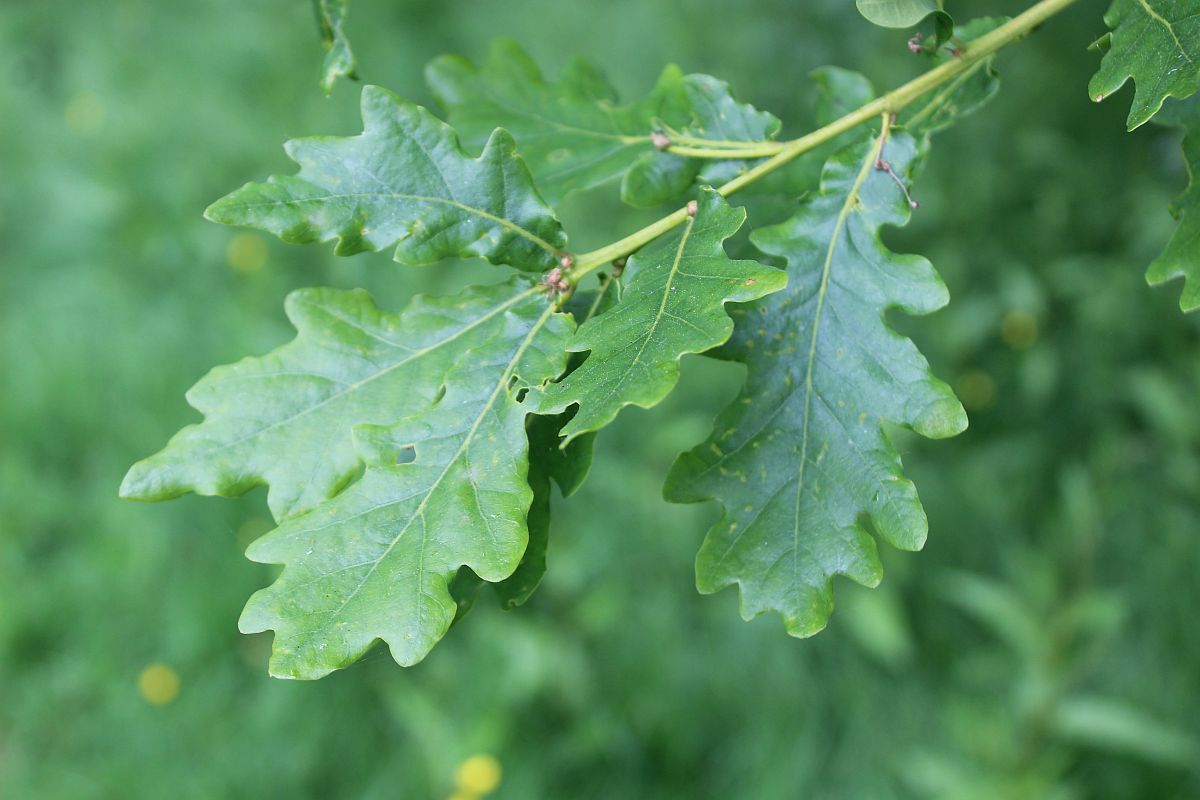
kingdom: Plantae
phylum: Tracheophyta
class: Magnoliopsida
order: Fagales
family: Fagaceae
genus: Quercus
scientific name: Quercus robur
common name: Pedunculate oak
